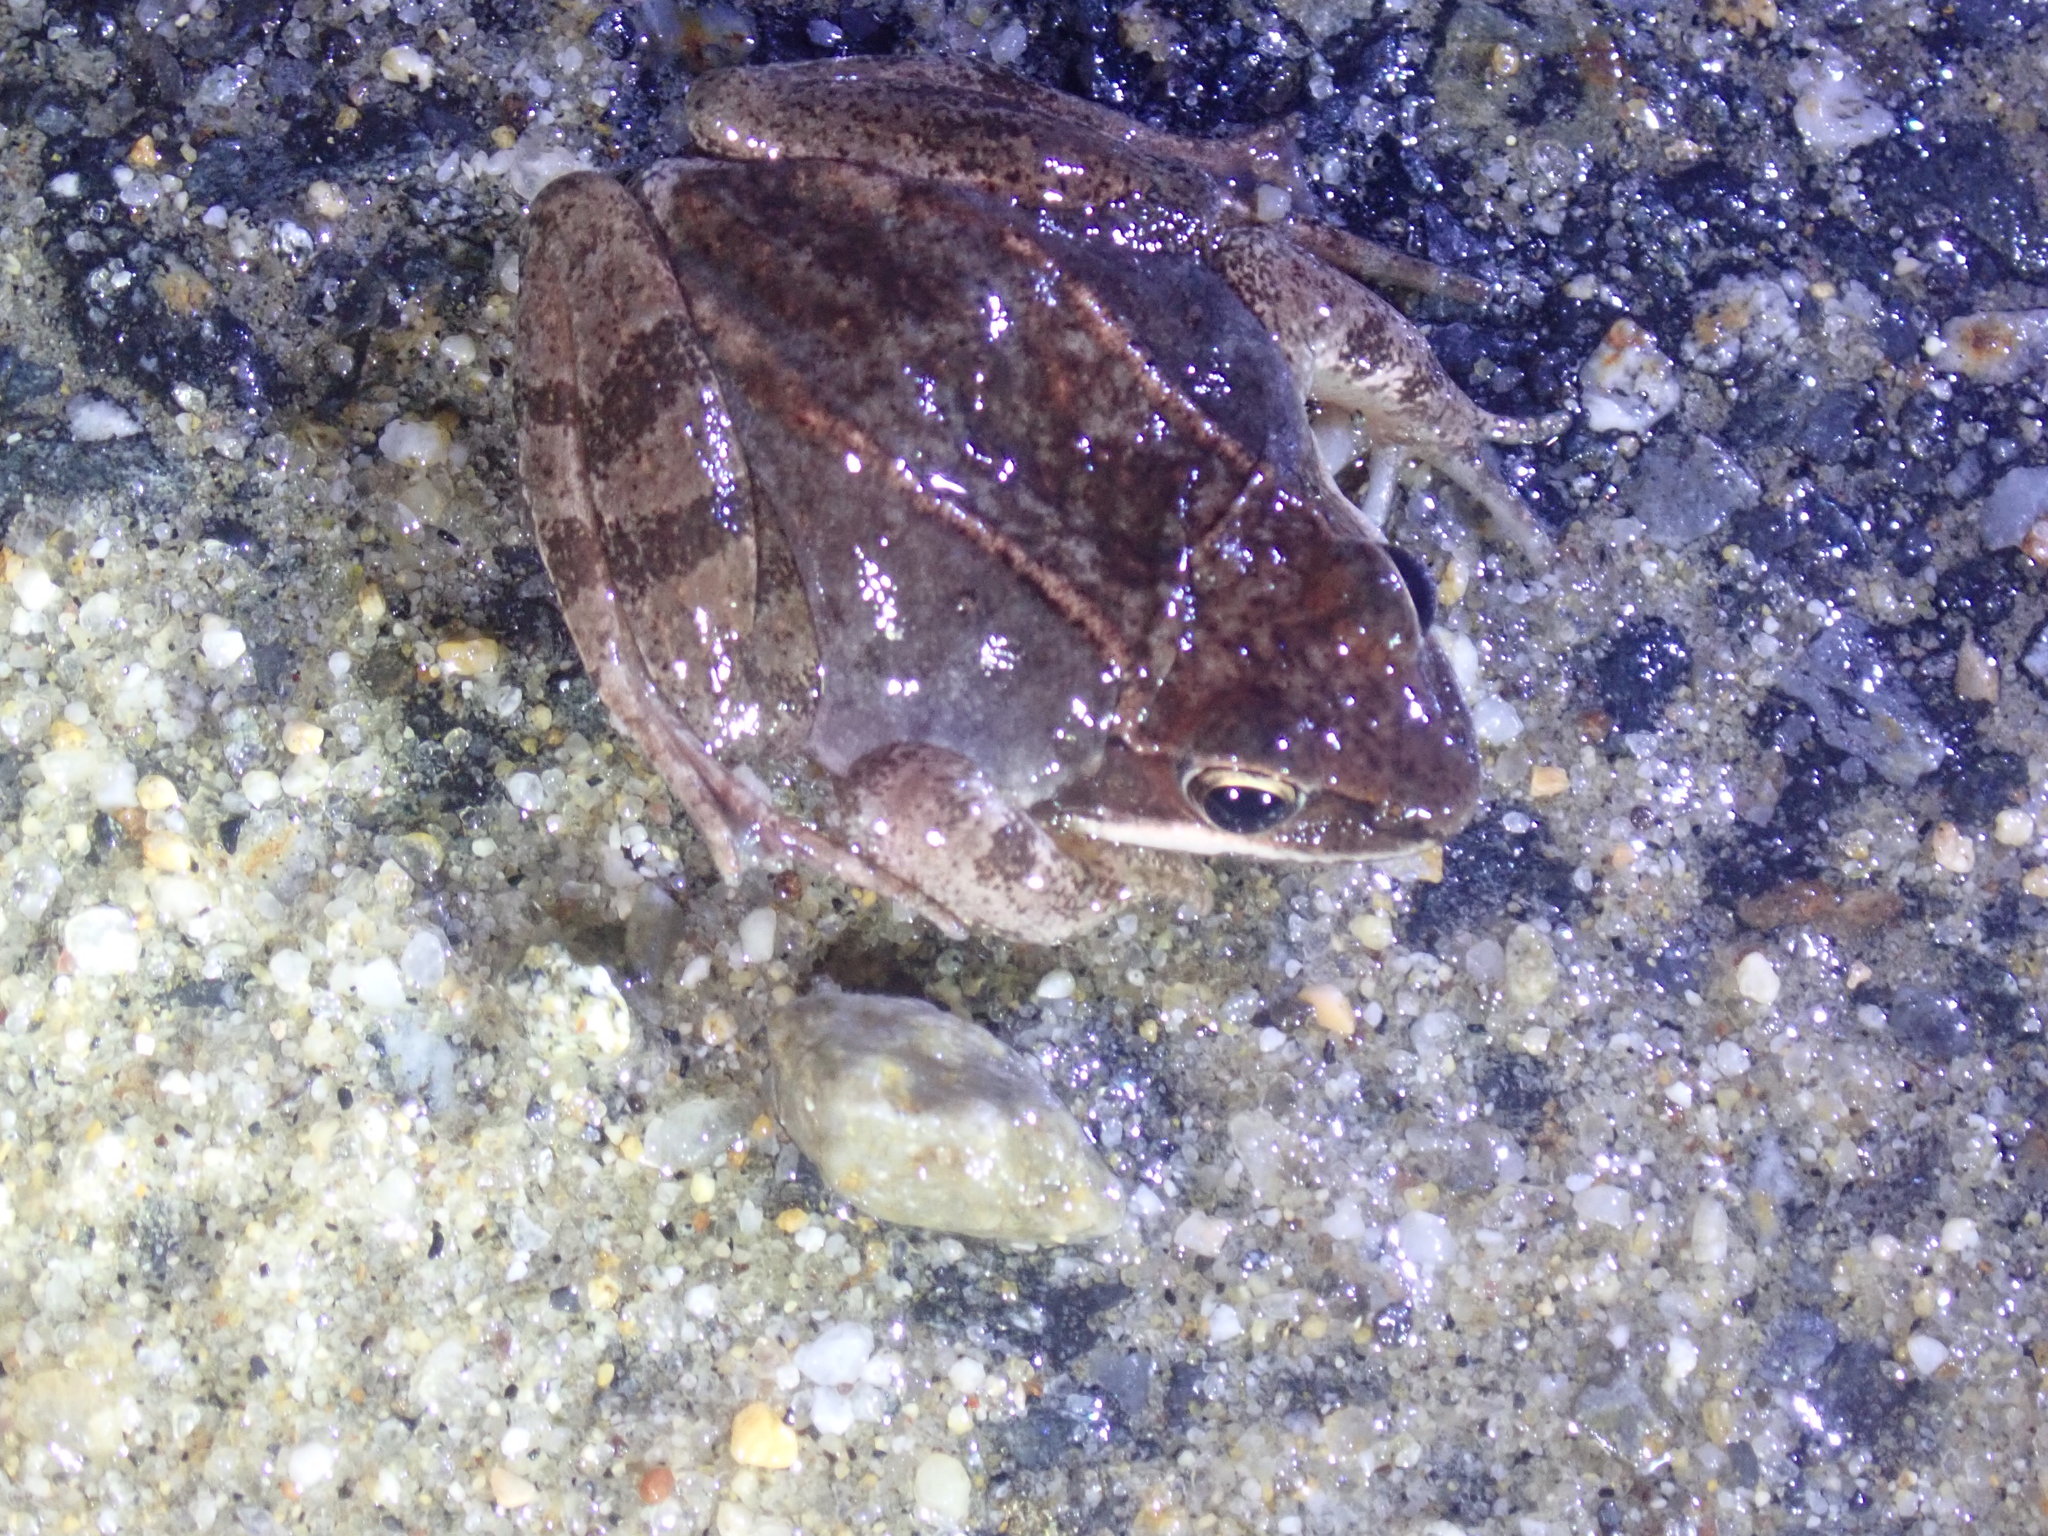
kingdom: Animalia
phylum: Chordata
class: Amphibia
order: Anura
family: Ranidae
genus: Lithobates
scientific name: Lithobates sylvaticus
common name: Wood frog
